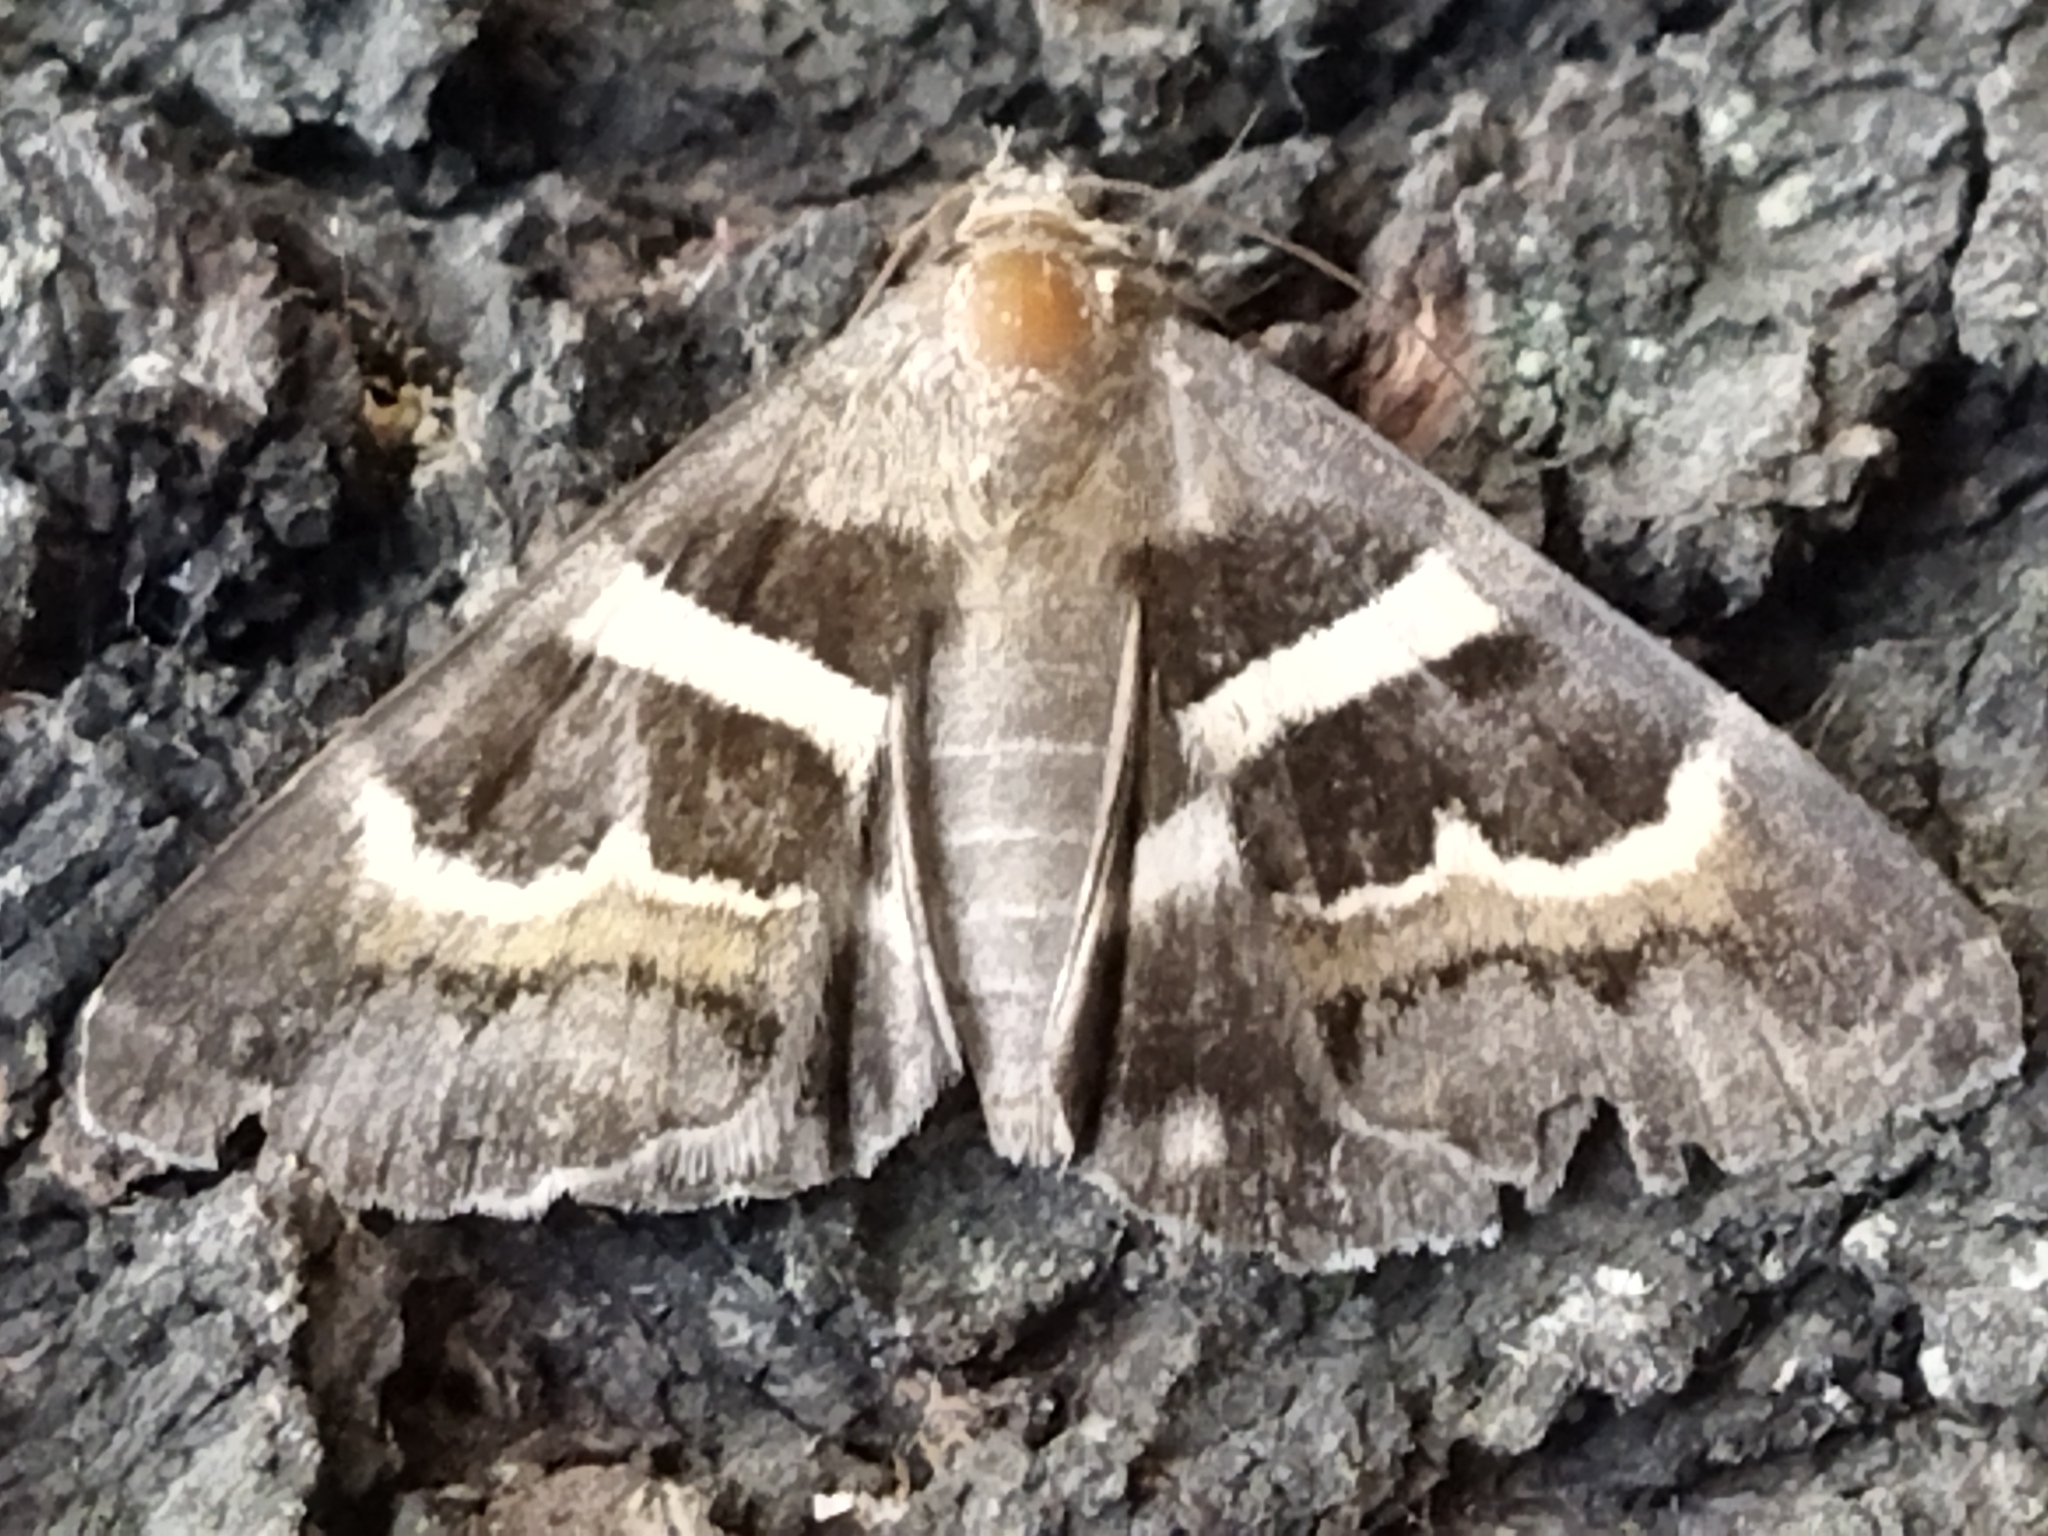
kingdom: Animalia
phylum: Arthropoda
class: Insecta
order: Lepidoptera
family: Erebidae
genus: Grammodes
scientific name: Grammodes stolida
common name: Geometrician
